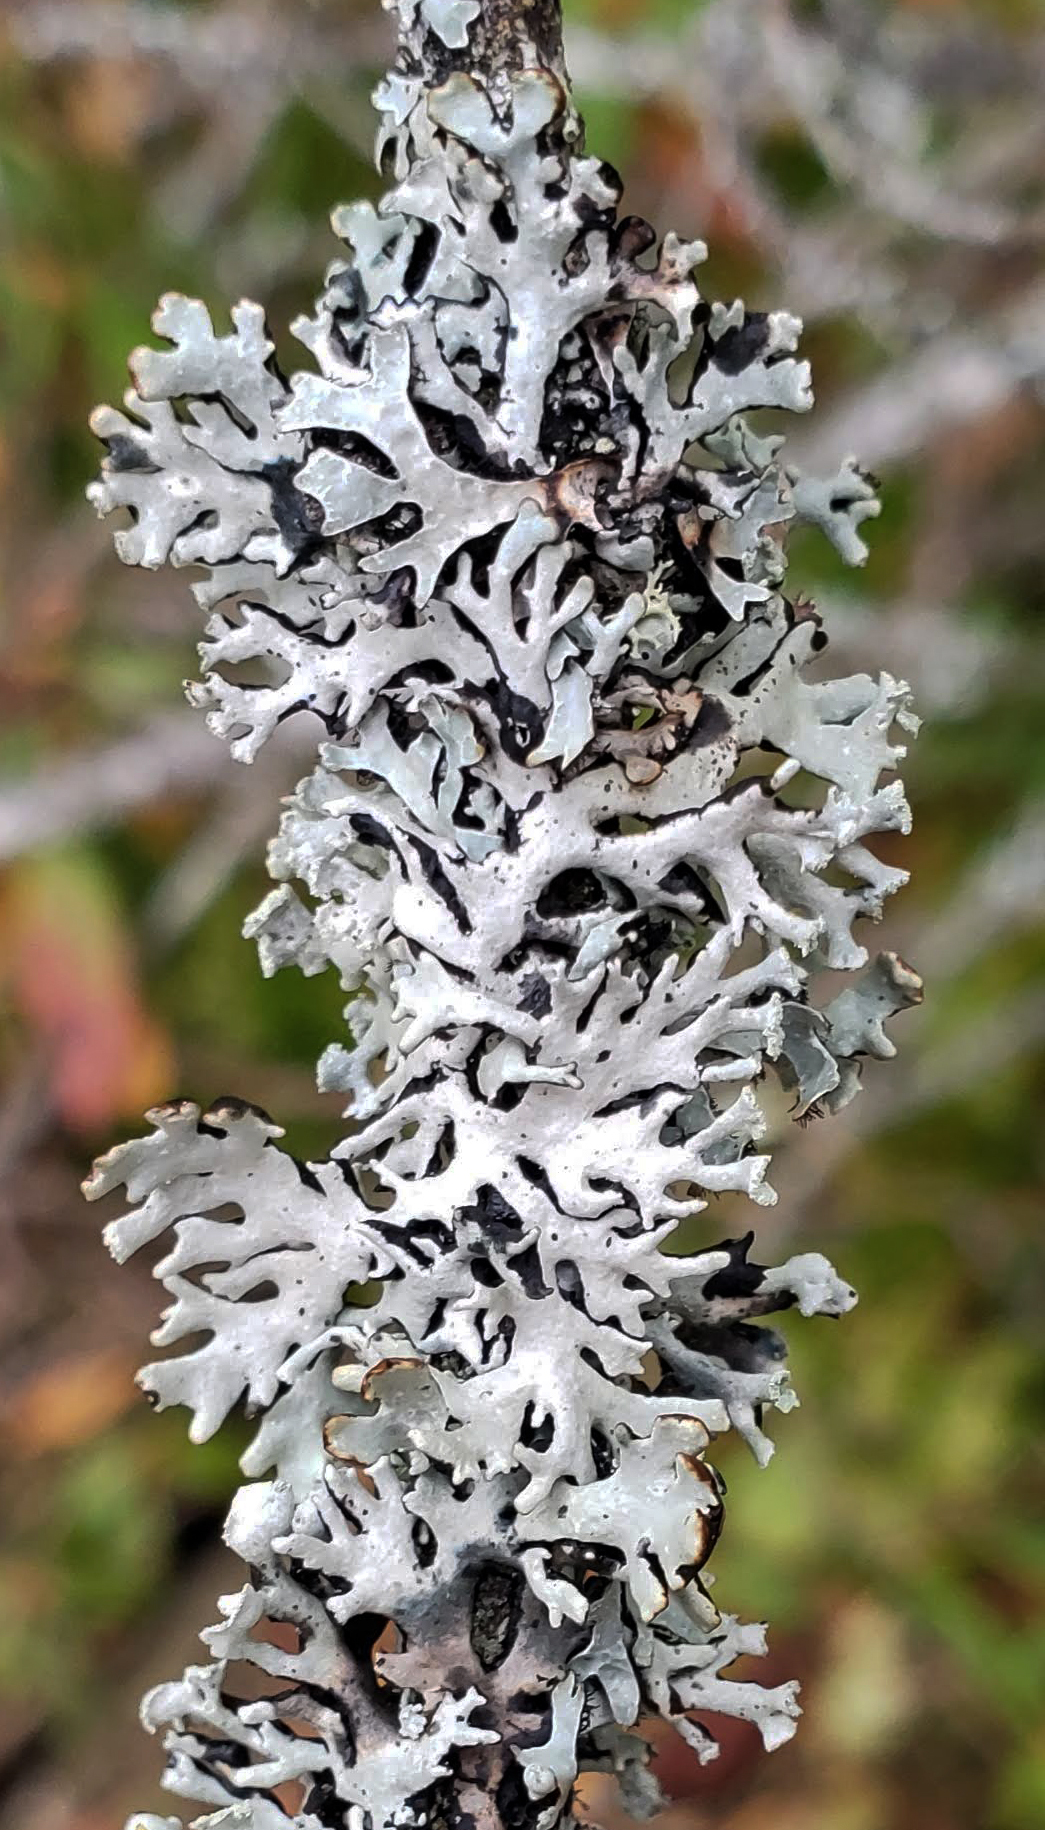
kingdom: Fungi
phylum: Ascomycota
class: Lecanoromycetes
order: Lecanorales
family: Parmeliaceae
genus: Hypogymnia
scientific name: Hypogymnia physodes
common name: Dark crottle
